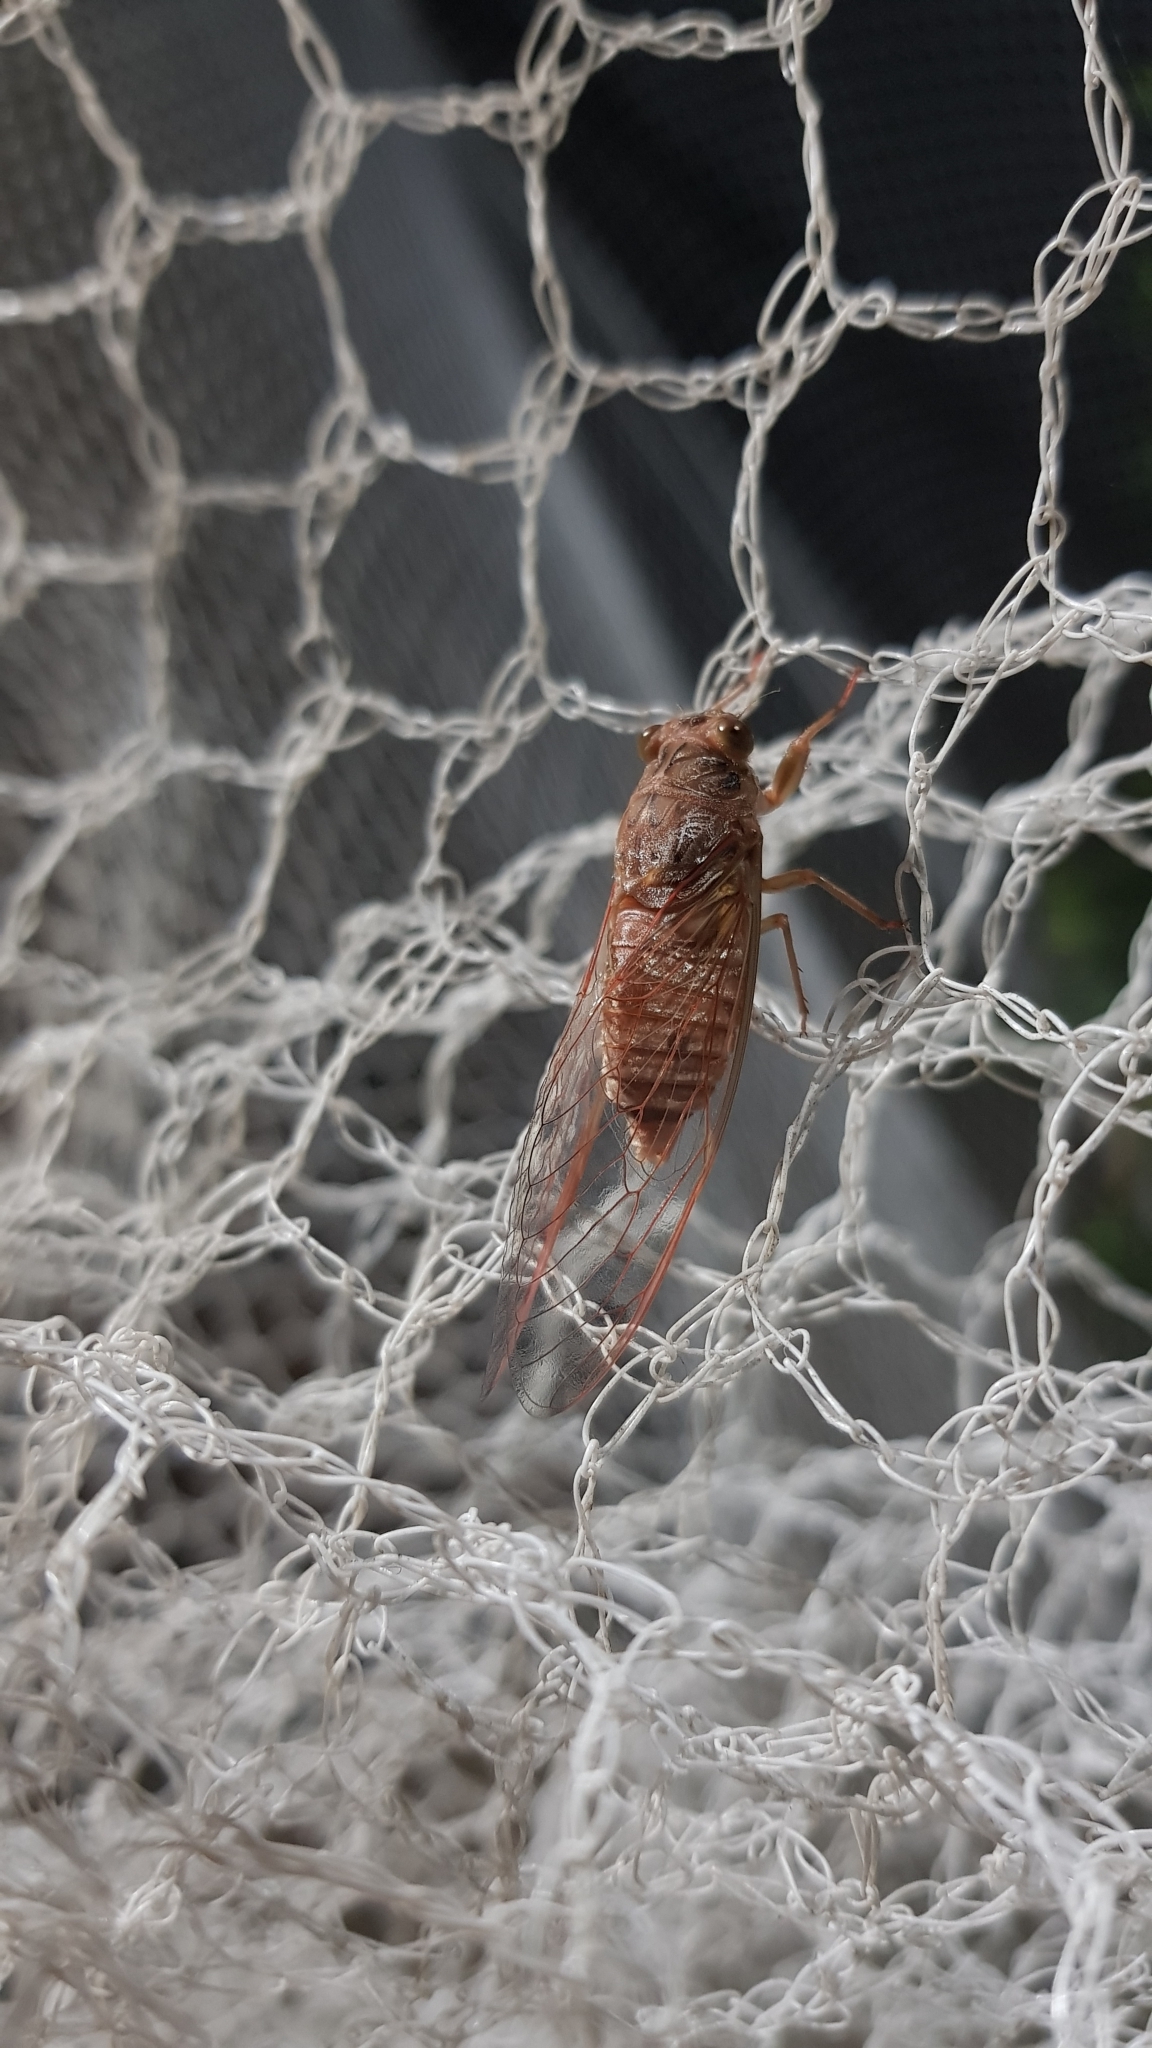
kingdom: Animalia
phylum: Arthropoda
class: Insecta
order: Hemiptera
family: Cicadidae
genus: Tamasa
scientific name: Tamasa tristigma
